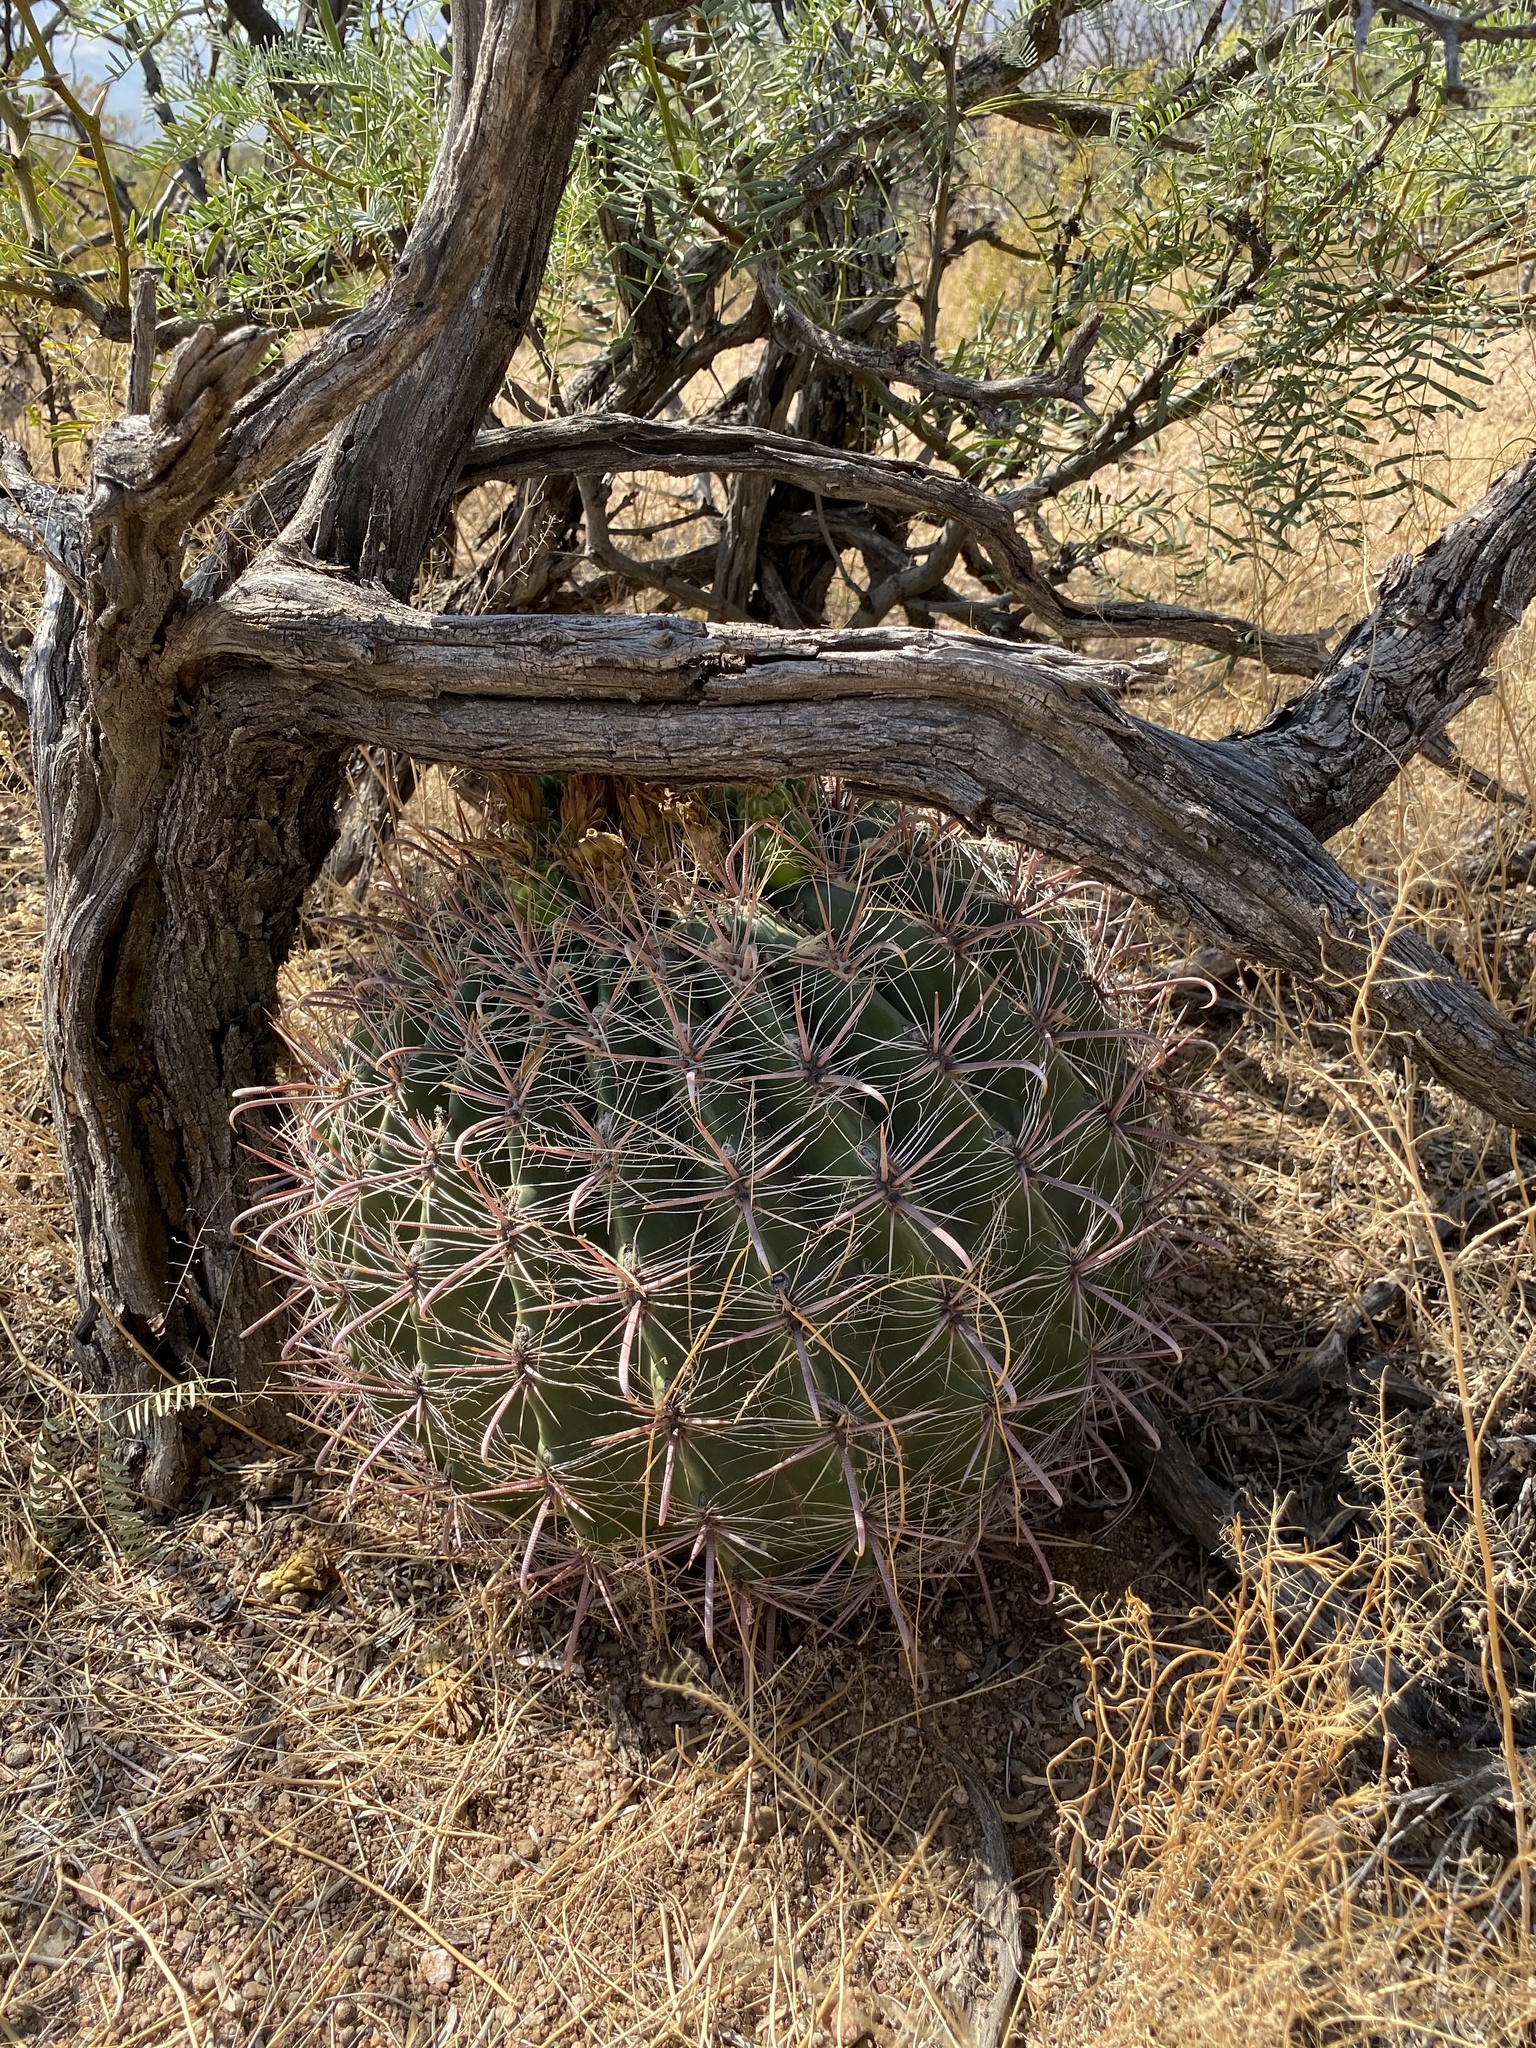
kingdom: Plantae
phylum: Tracheophyta
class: Magnoliopsida
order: Caryophyllales
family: Cactaceae
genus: Ferocactus
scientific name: Ferocactus wislizeni
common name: Candy barrel cactus
